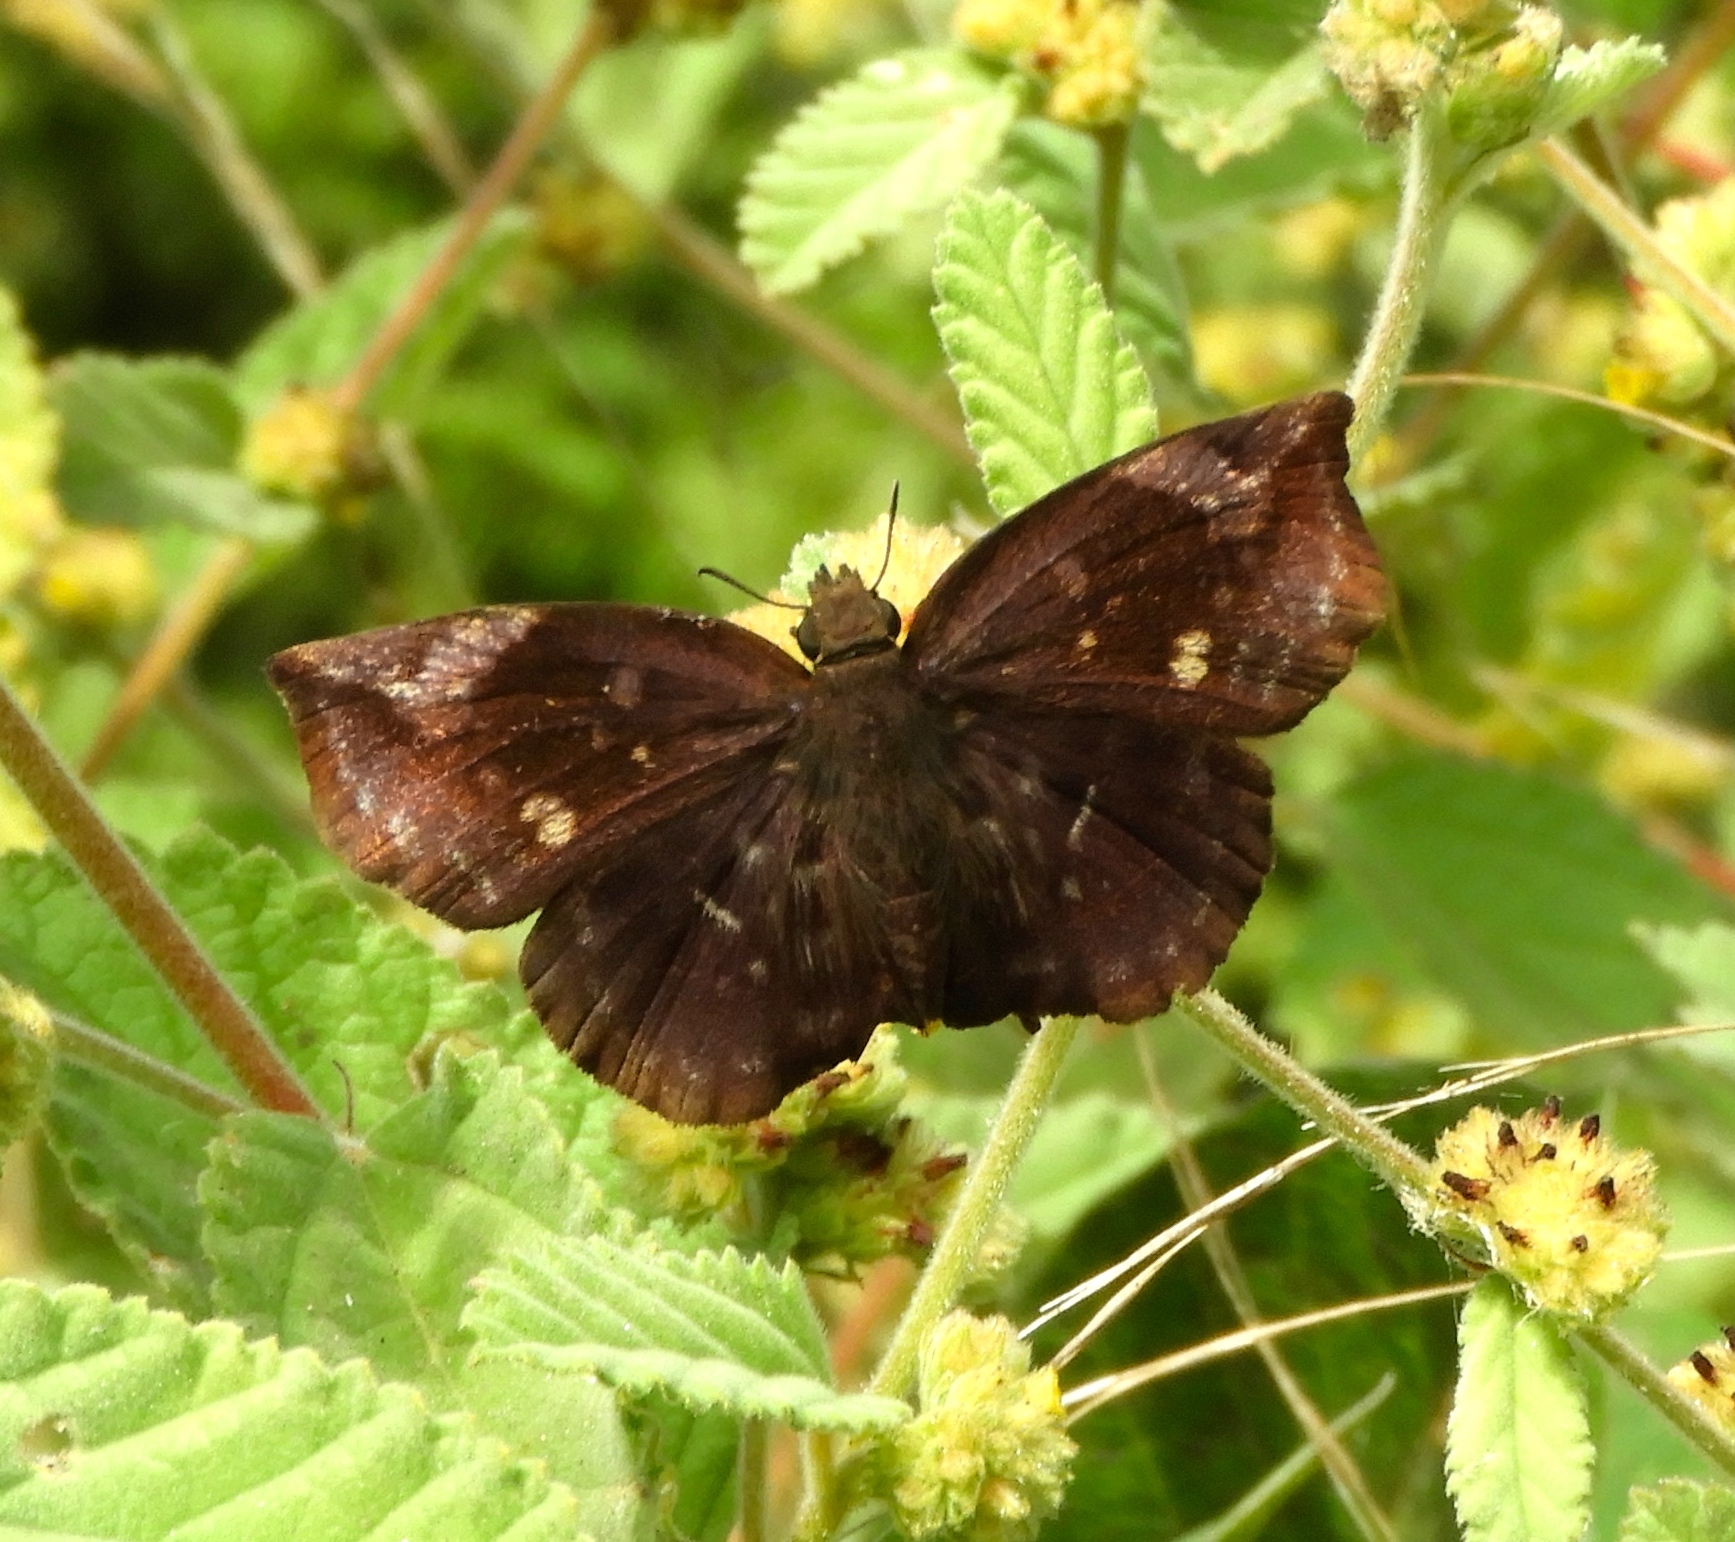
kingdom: Animalia
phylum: Arthropoda
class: Insecta
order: Lepidoptera
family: Hesperiidae
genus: Achlyodes
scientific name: Achlyodes thraso
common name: Sickle-winged skipper
